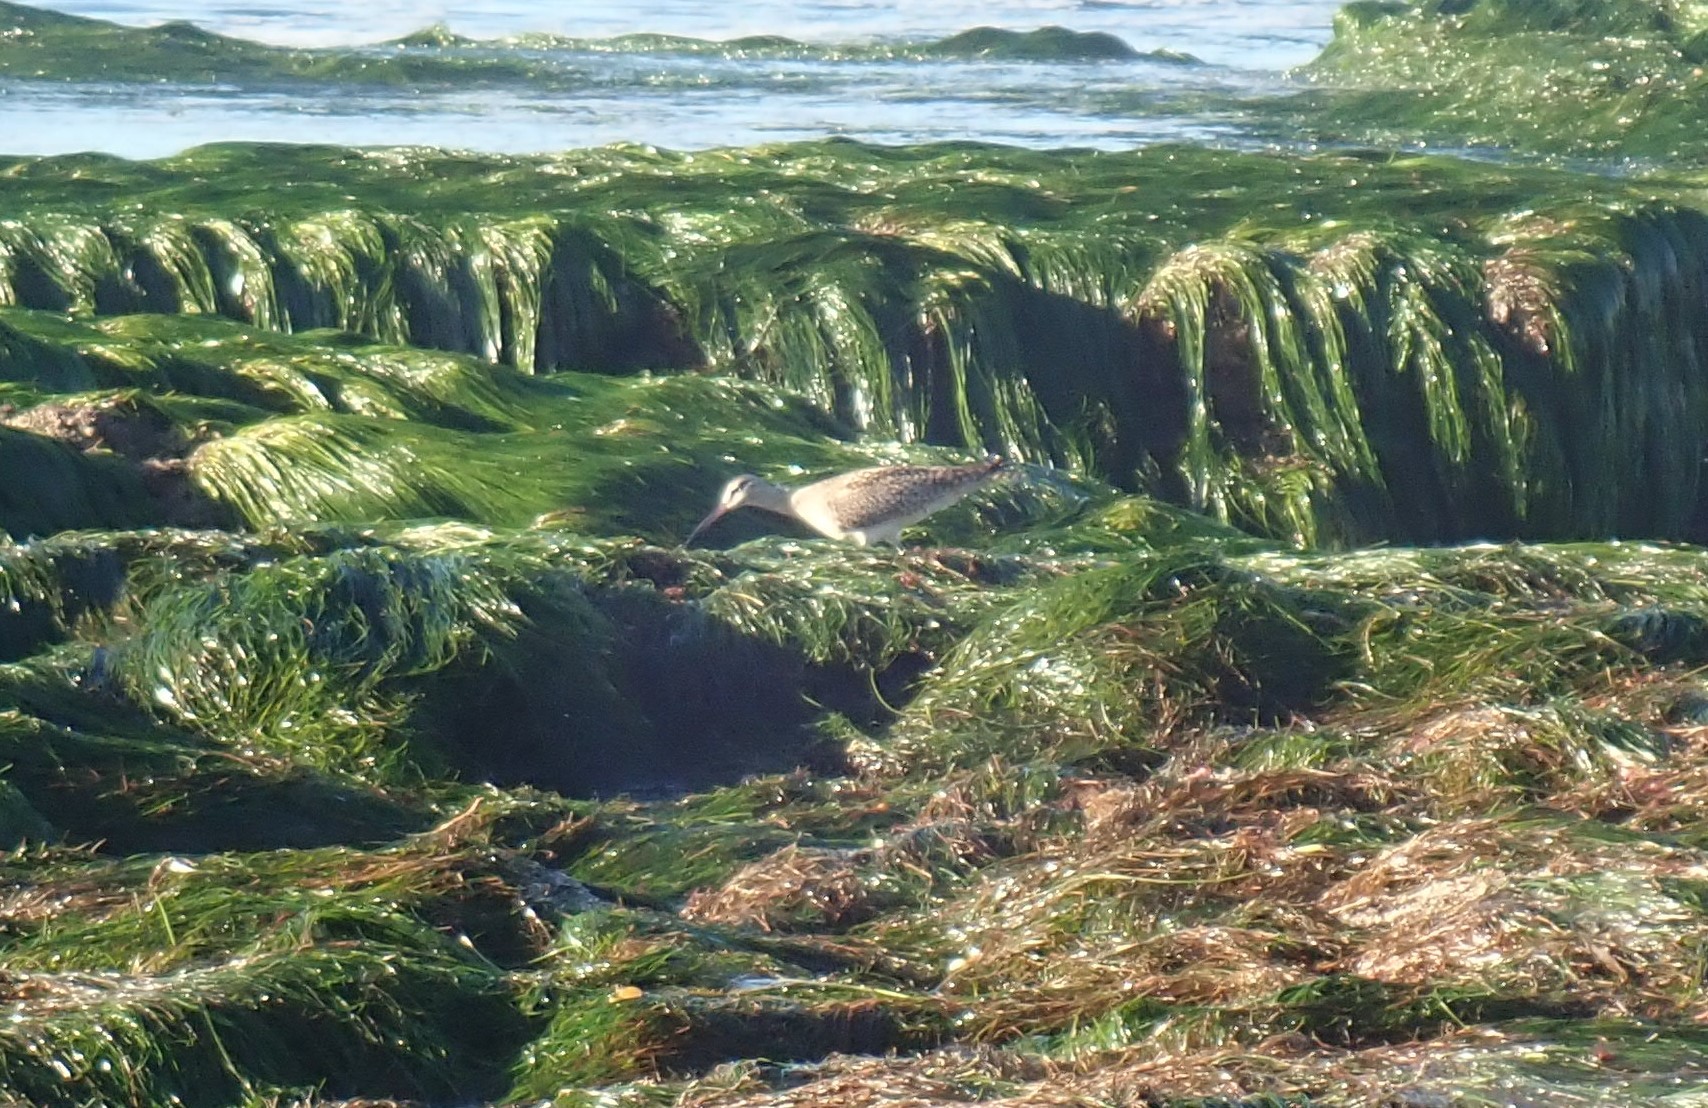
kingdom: Animalia
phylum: Chordata
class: Aves
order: Charadriiformes
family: Scolopacidae
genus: Numenius
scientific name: Numenius phaeopus
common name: Whimbrel
